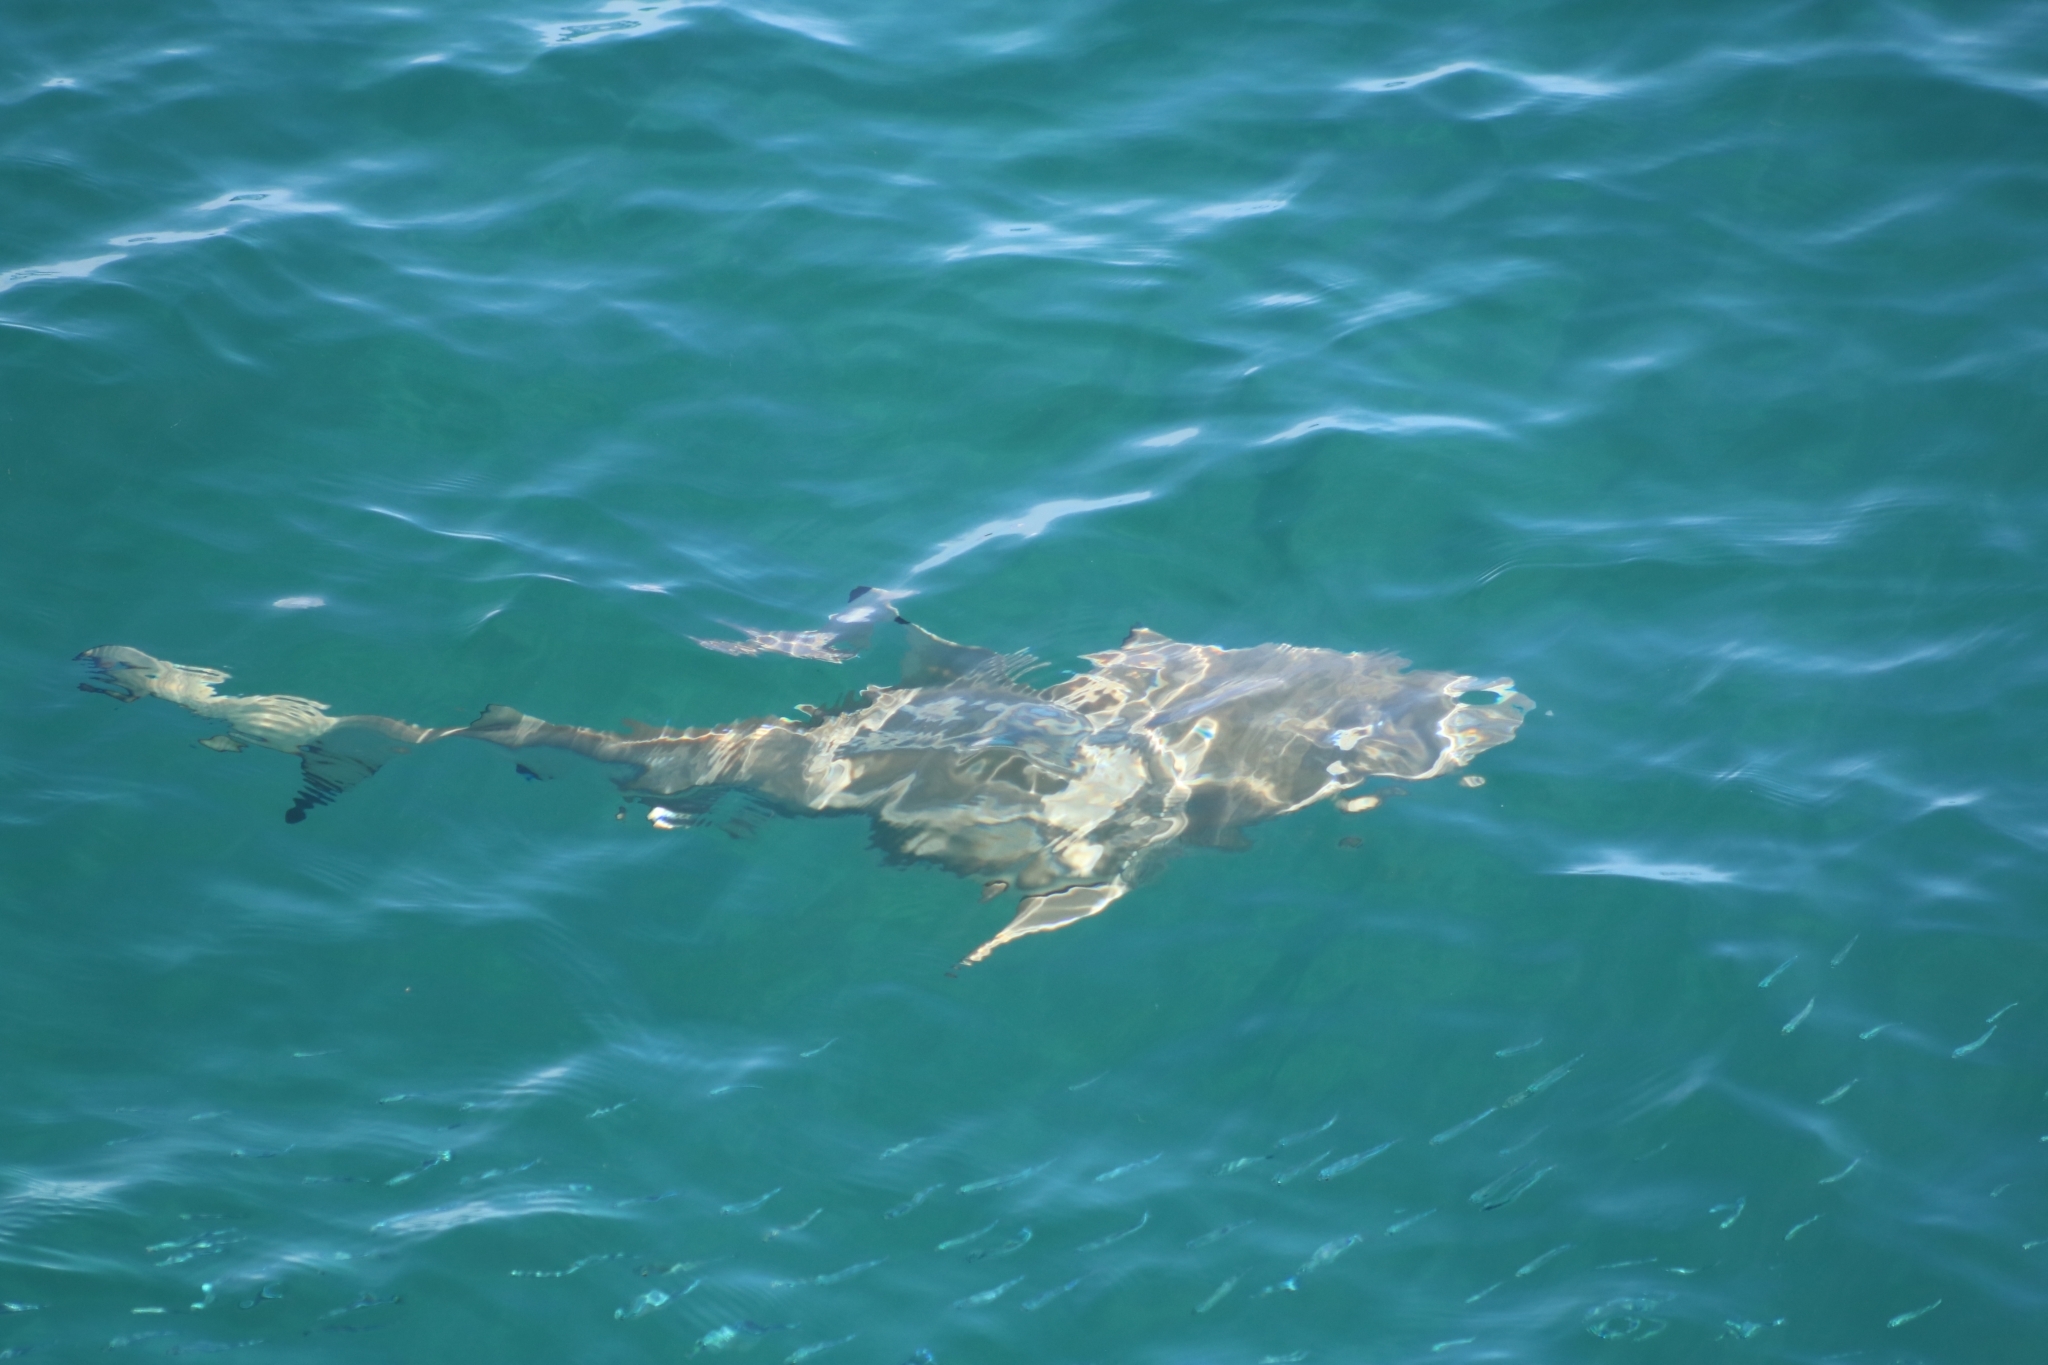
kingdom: Animalia
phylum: Chordata
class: Elasmobranchii
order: Carcharhiniformes
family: Carcharhinidae
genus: Carcharhinus
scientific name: Carcharhinus melanopterus
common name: Blacktip reef shark
